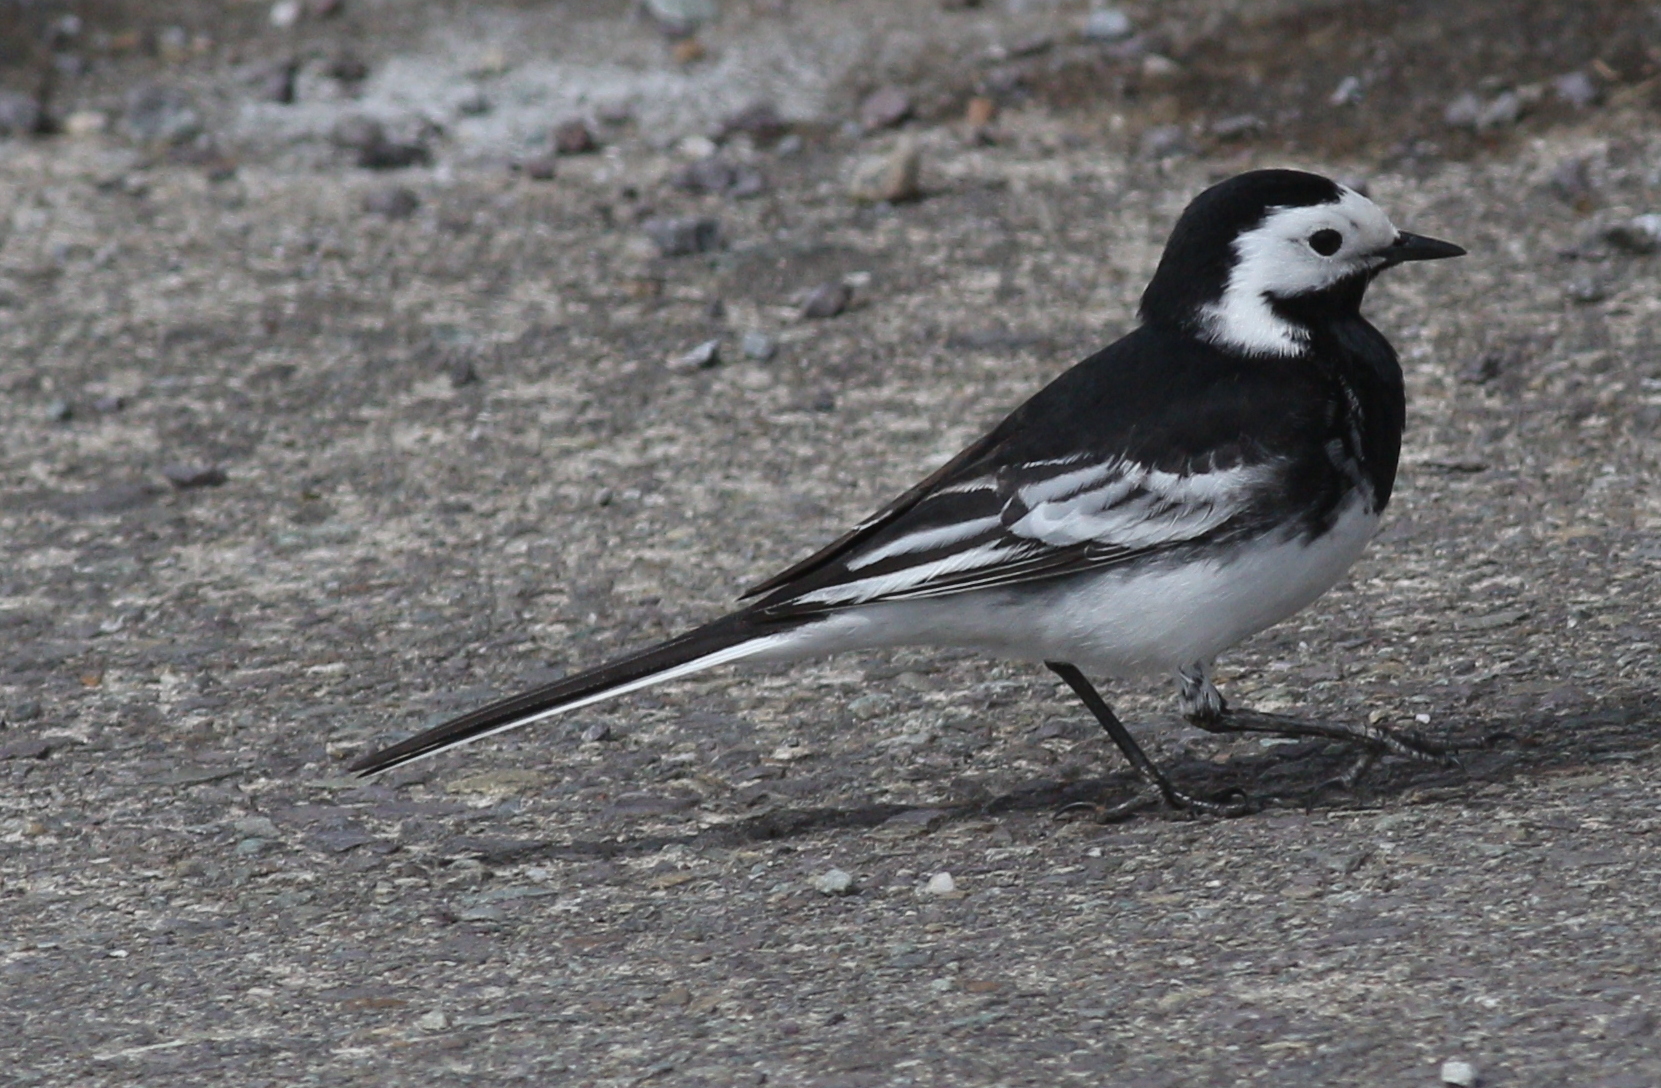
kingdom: Animalia
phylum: Chordata
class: Aves
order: Passeriformes
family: Motacillidae
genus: Motacilla
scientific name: Motacilla alba
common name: White wagtail
